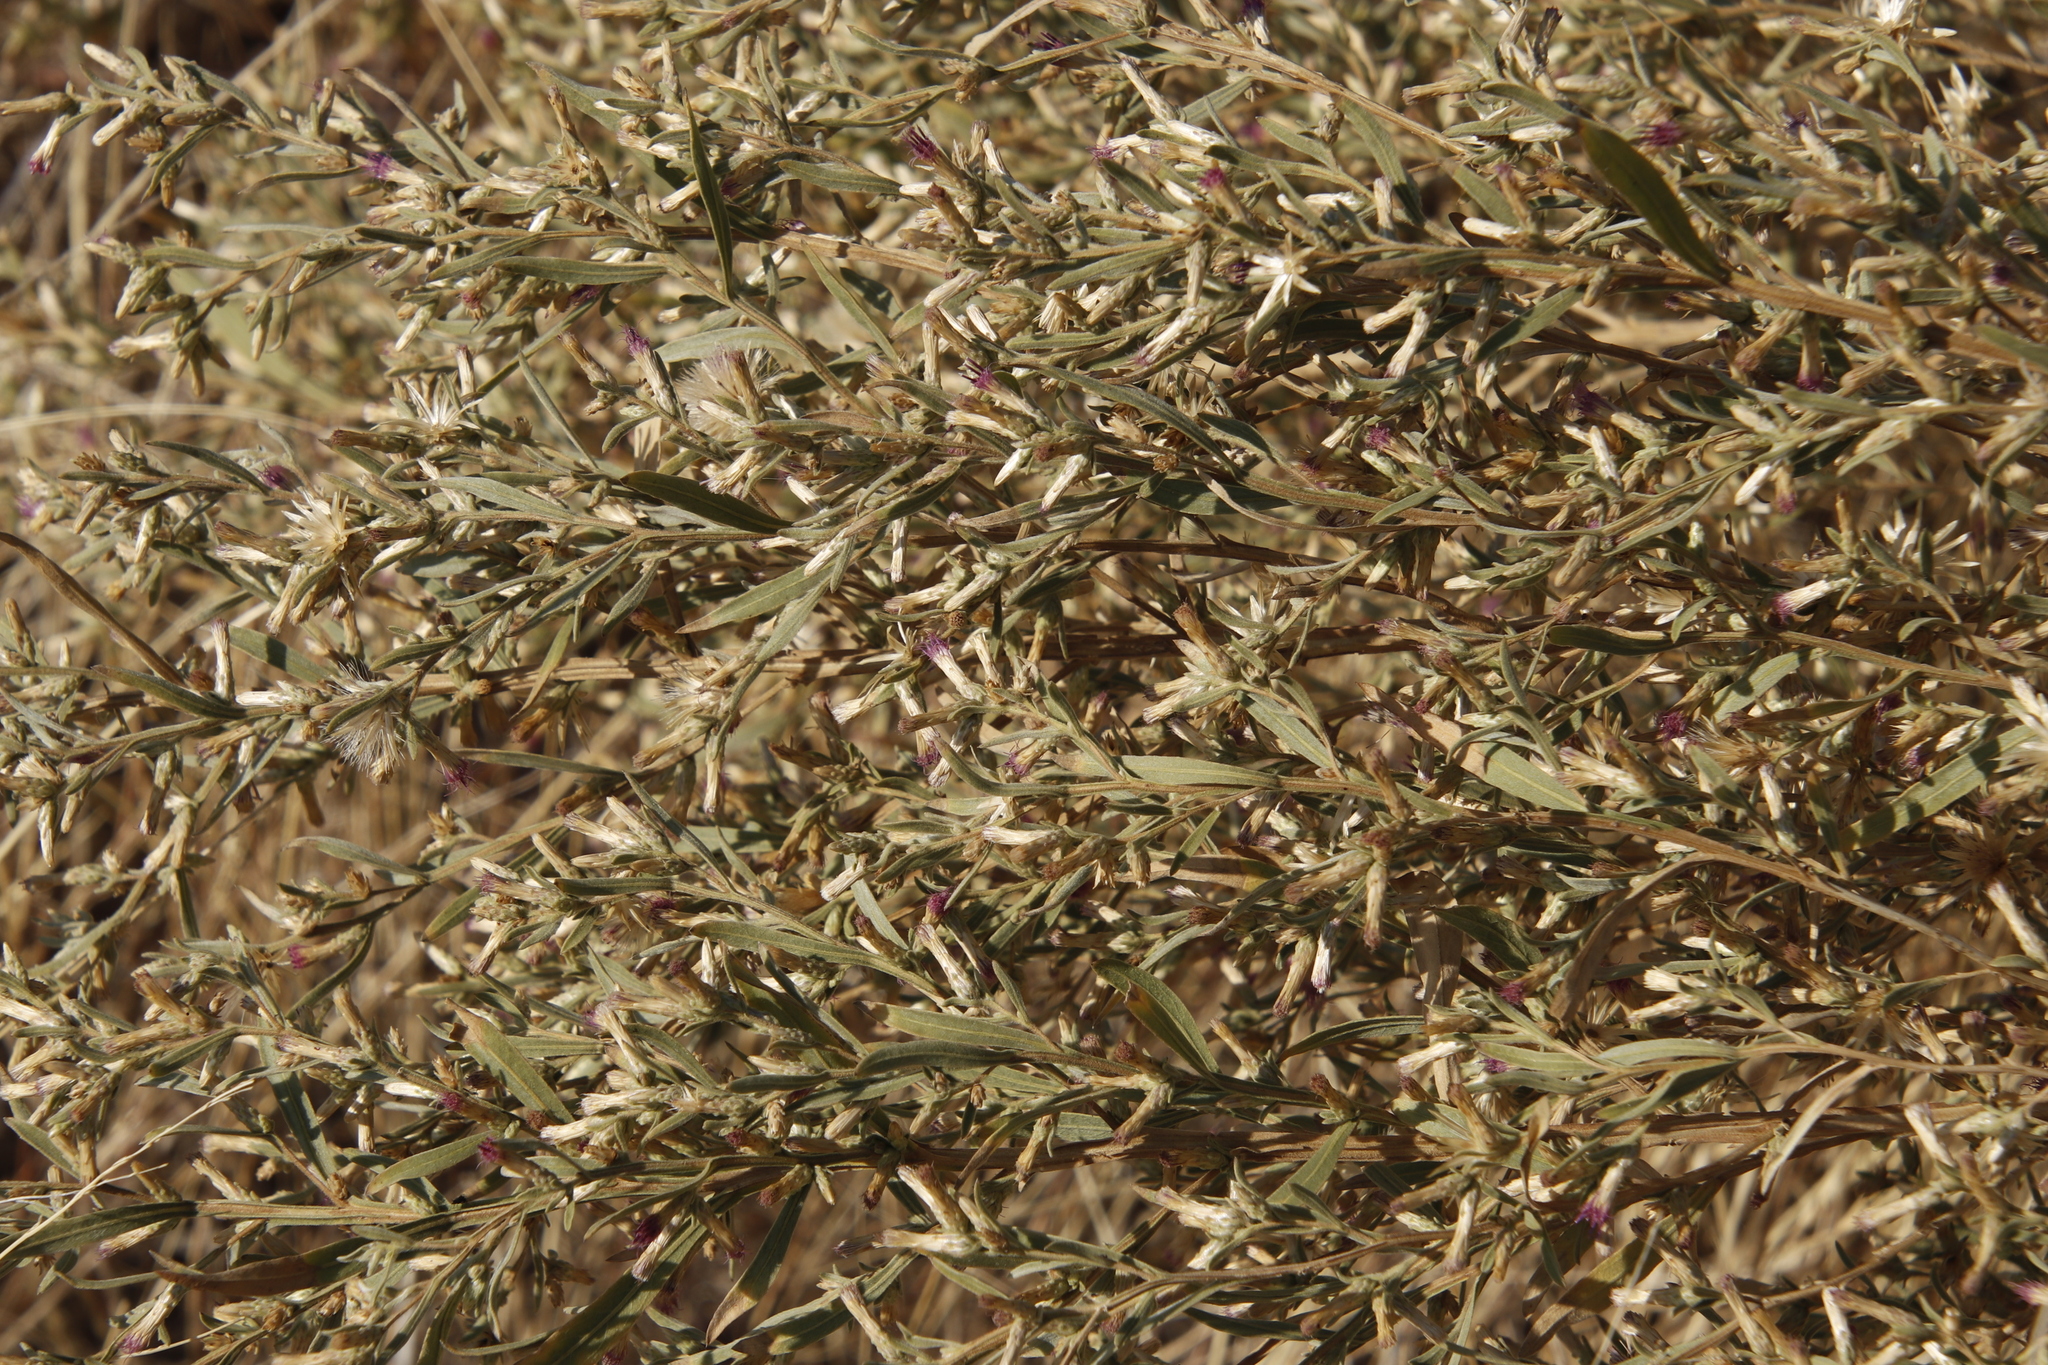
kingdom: Plantae
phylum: Tracheophyta
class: Magnoliopsida
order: Asterales
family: Asteraceae
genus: Pechuel-loeschea
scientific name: Pechuel-loeschea leubnitziae
